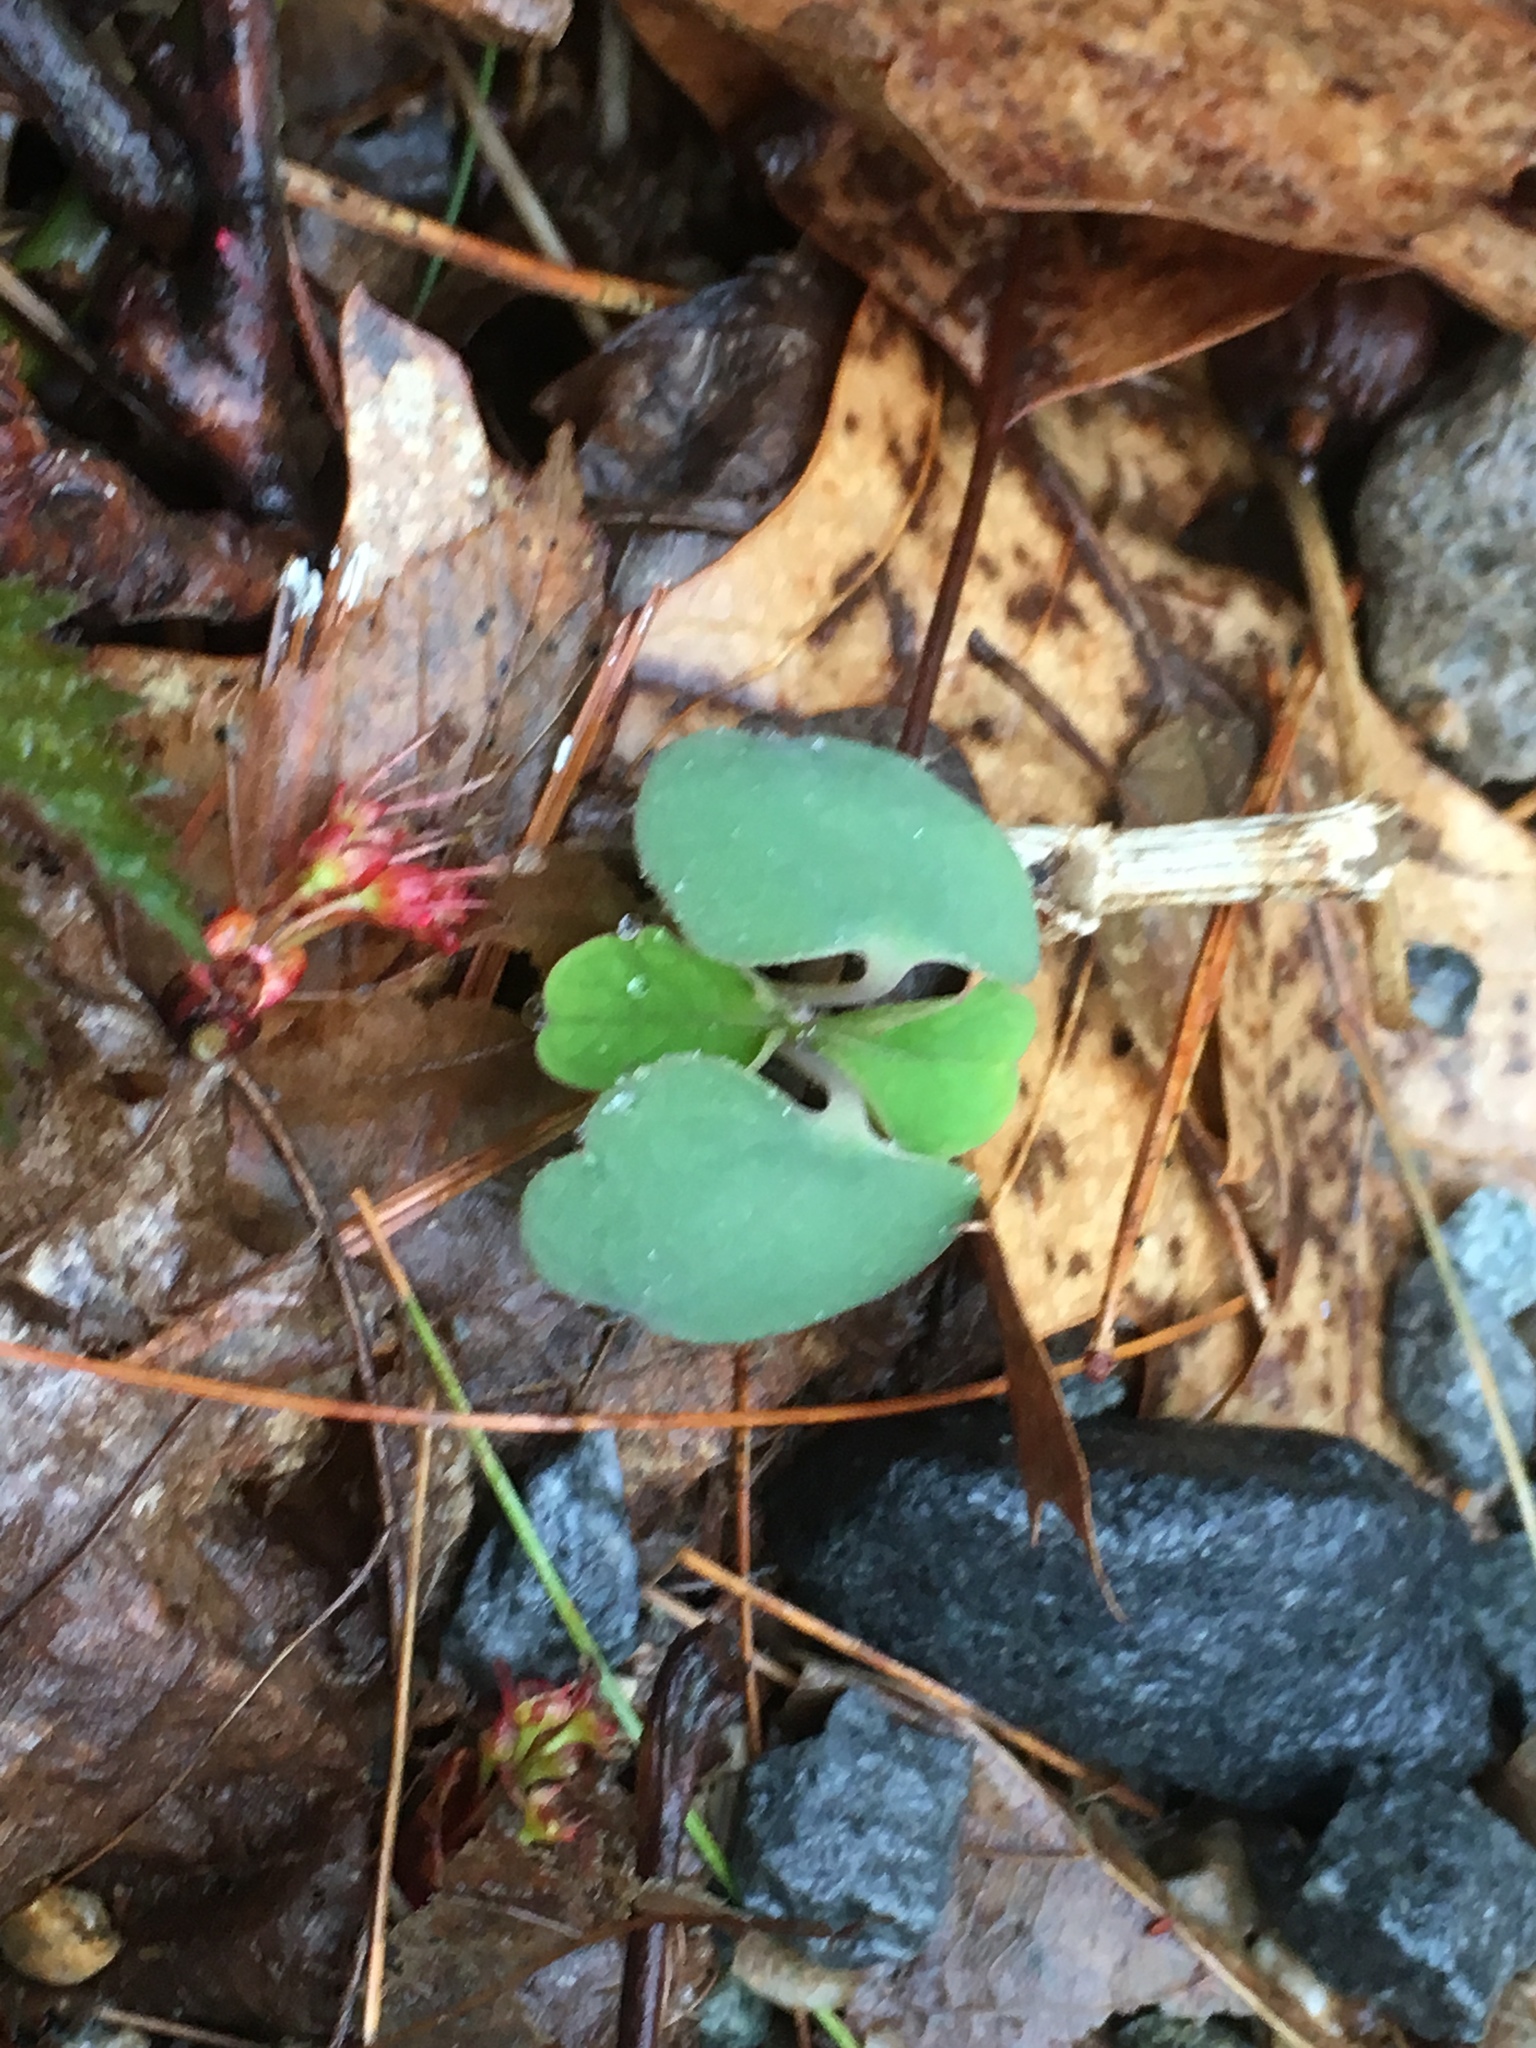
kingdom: Plantae
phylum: Tracheophyta
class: Magnoliopsida
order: Ericales
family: Balsaminaceae
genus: Impatiens
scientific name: Impatiens
